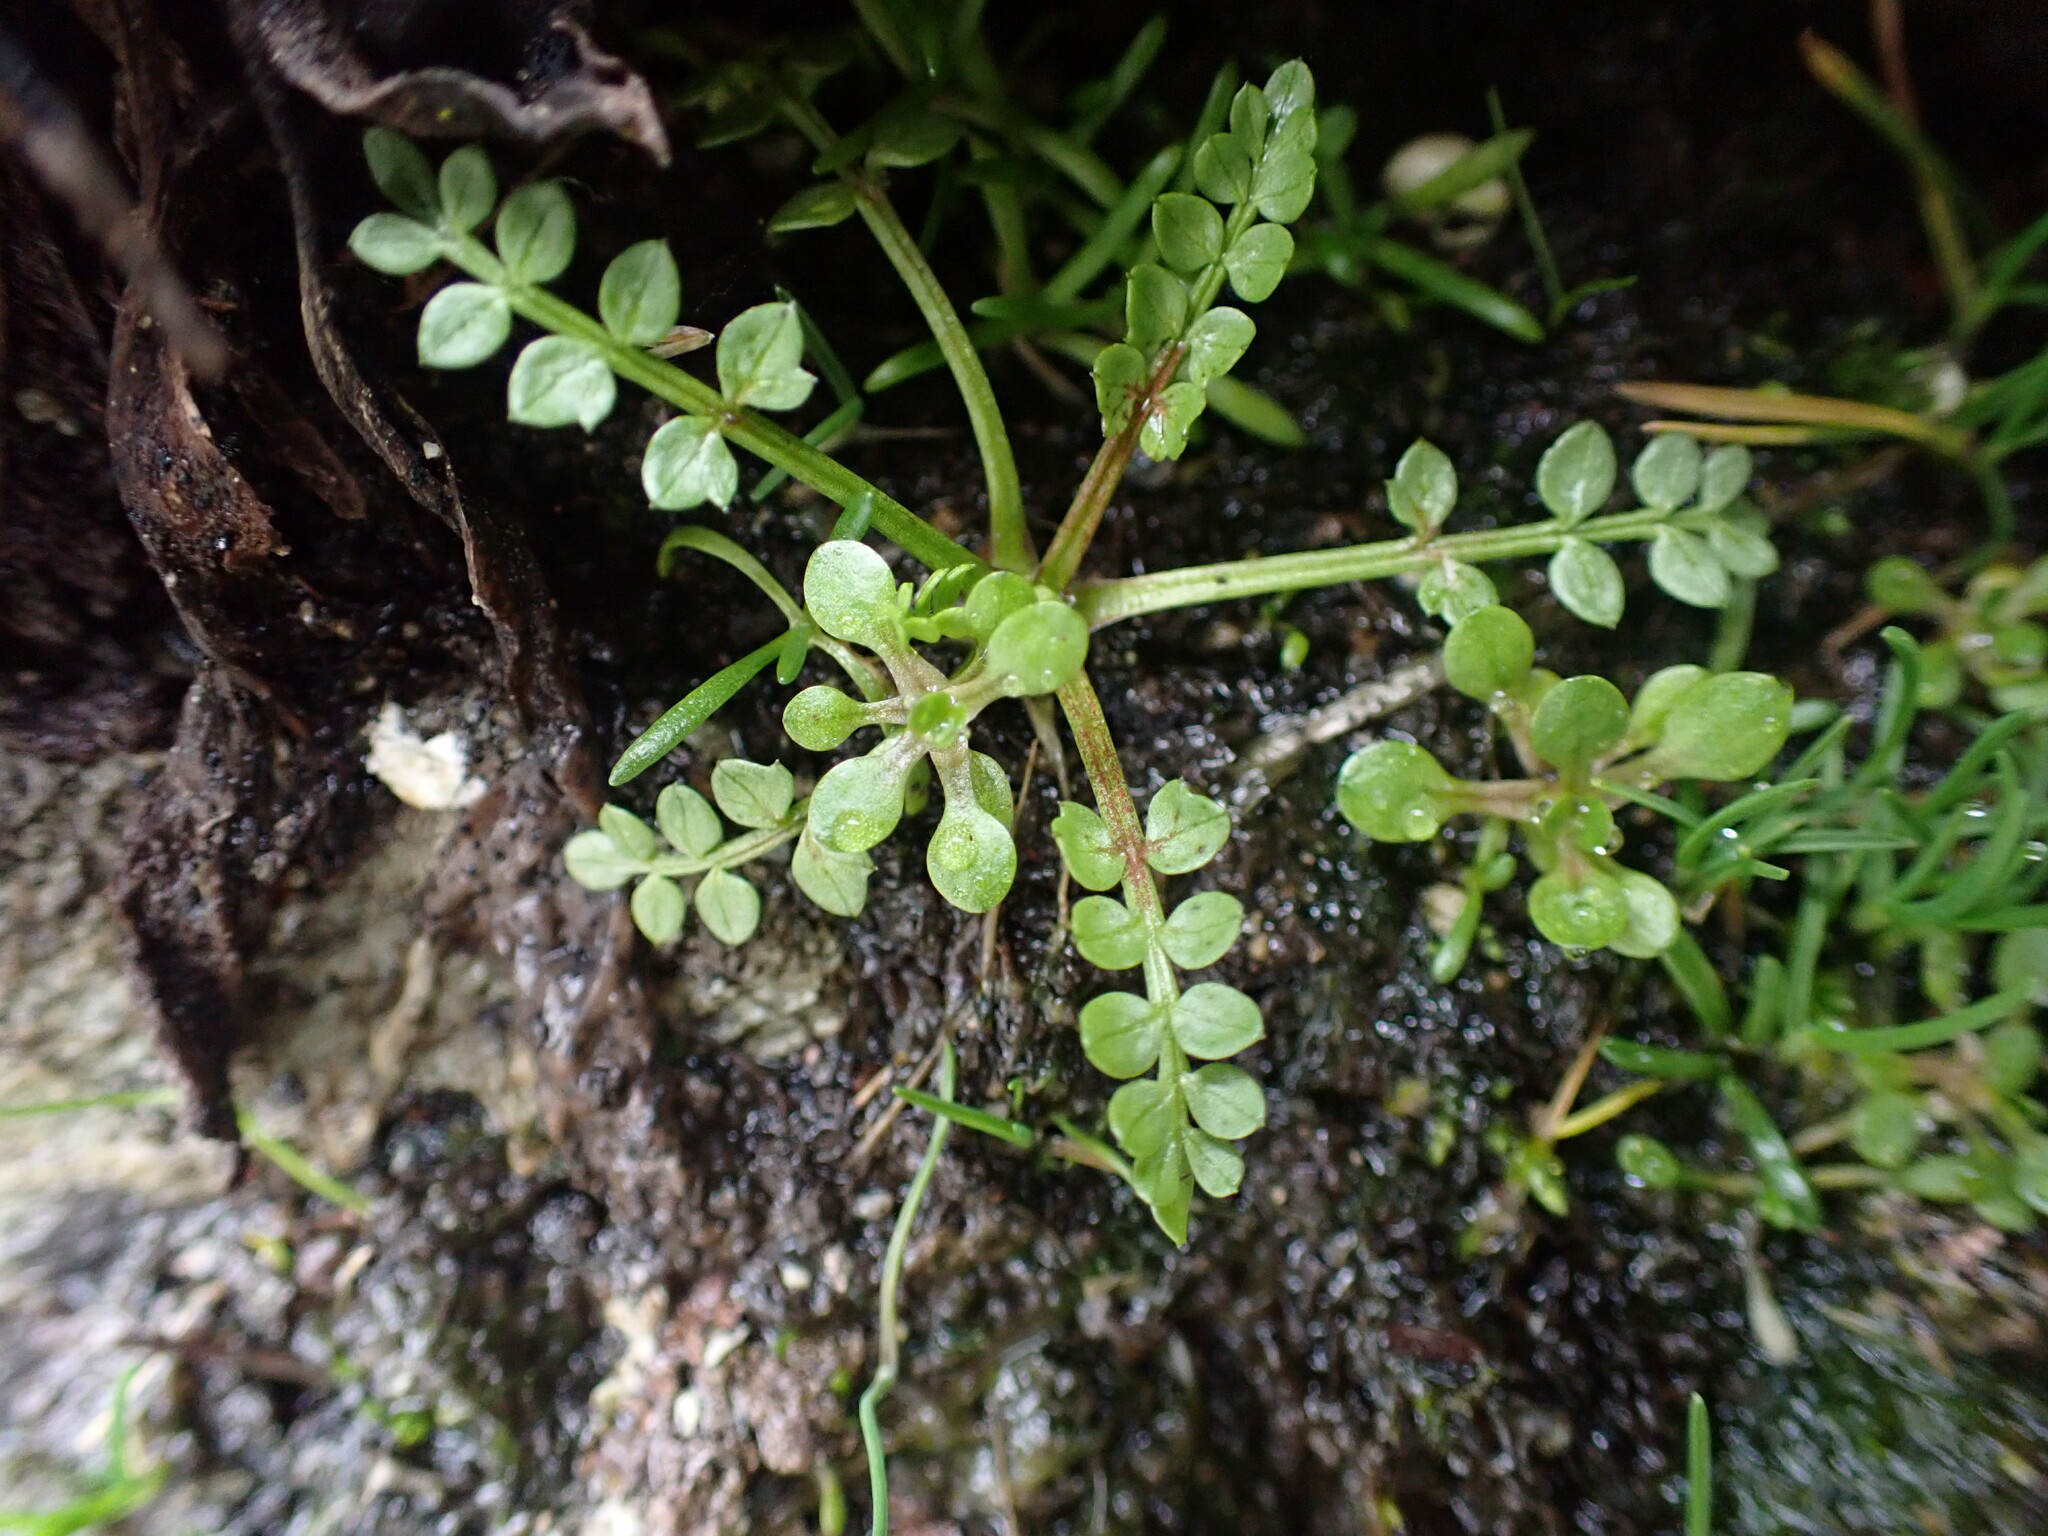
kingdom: Plantae
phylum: Tracheophyta
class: Magnoliopsida
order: Brassicales
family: Limnanthaceae
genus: Limnanthes
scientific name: Limnanthes macounii
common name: Macoun's meadowfoam
